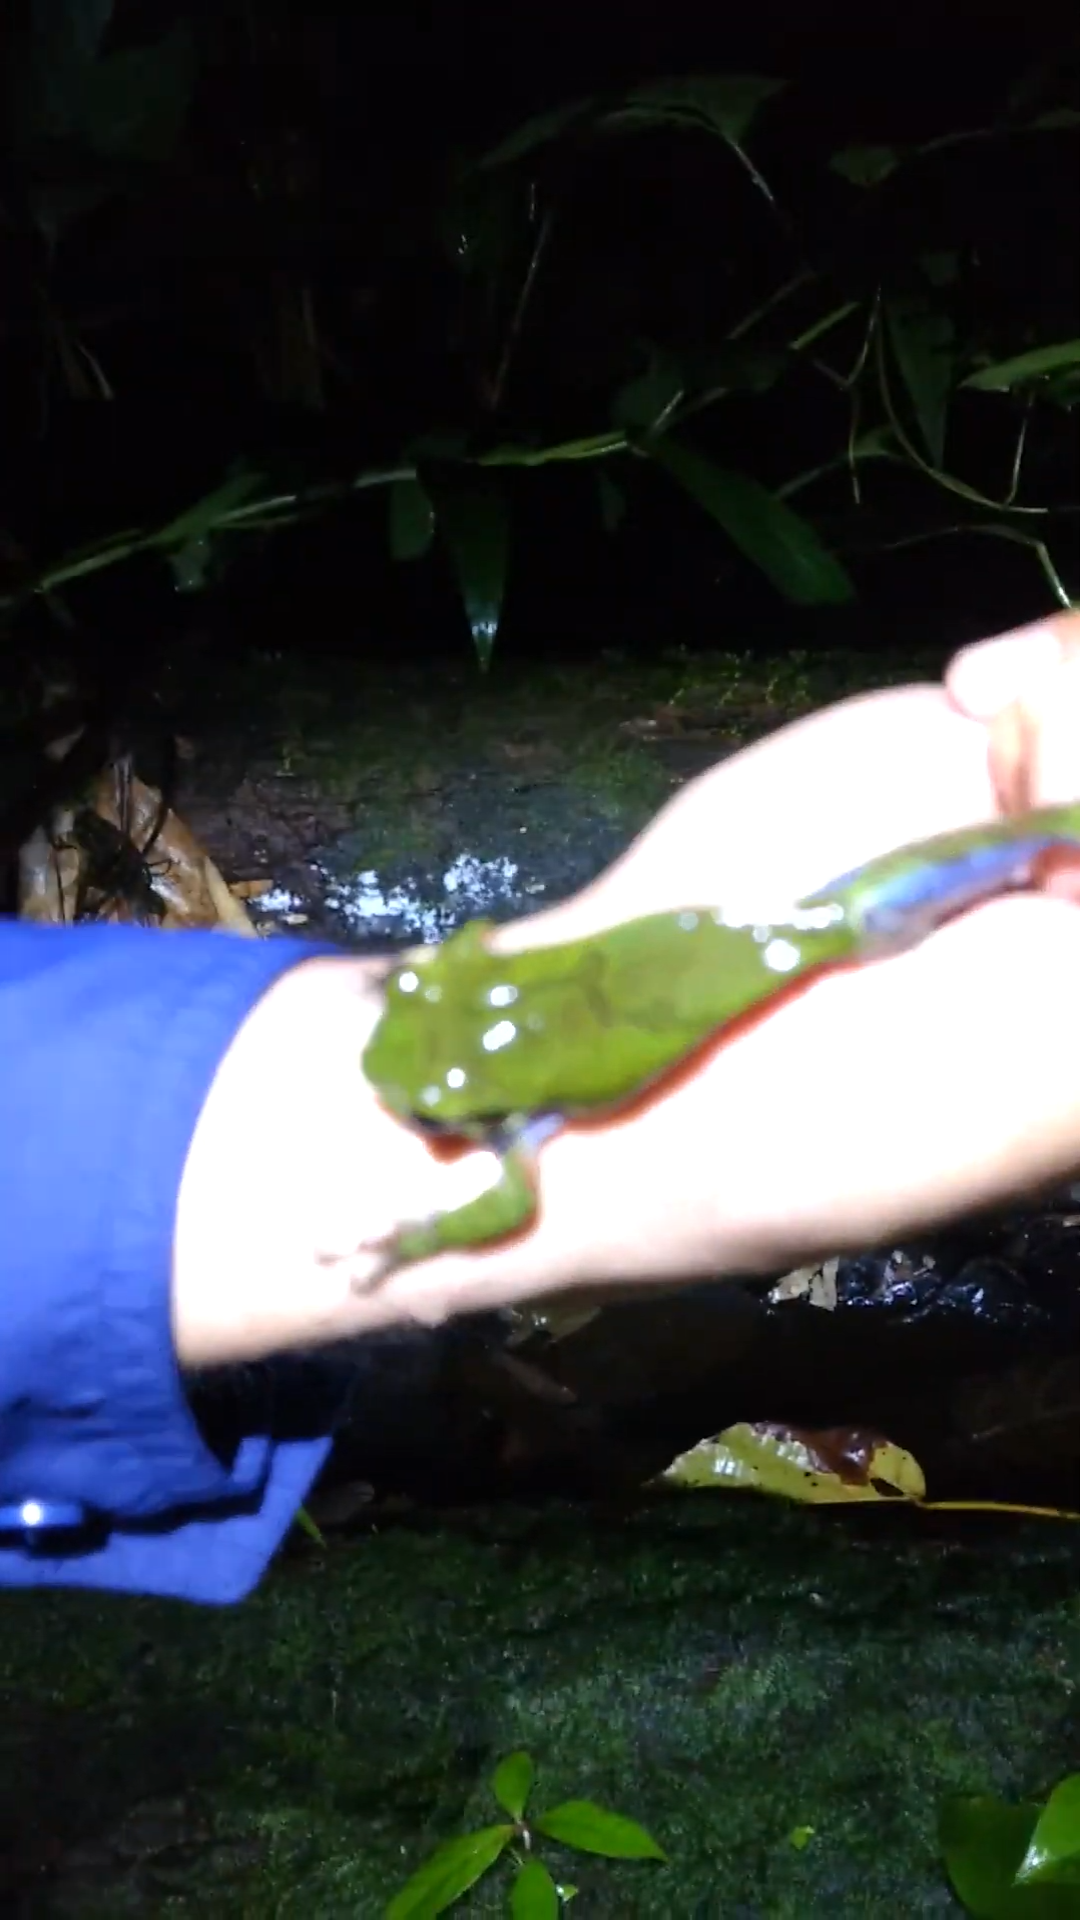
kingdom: Animalia
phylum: Chordata
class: Amphibia
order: Anura
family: Hylidae
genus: Smilisca
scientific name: Smilisca cyanosticta
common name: Blue-spotted mexican treefrog
